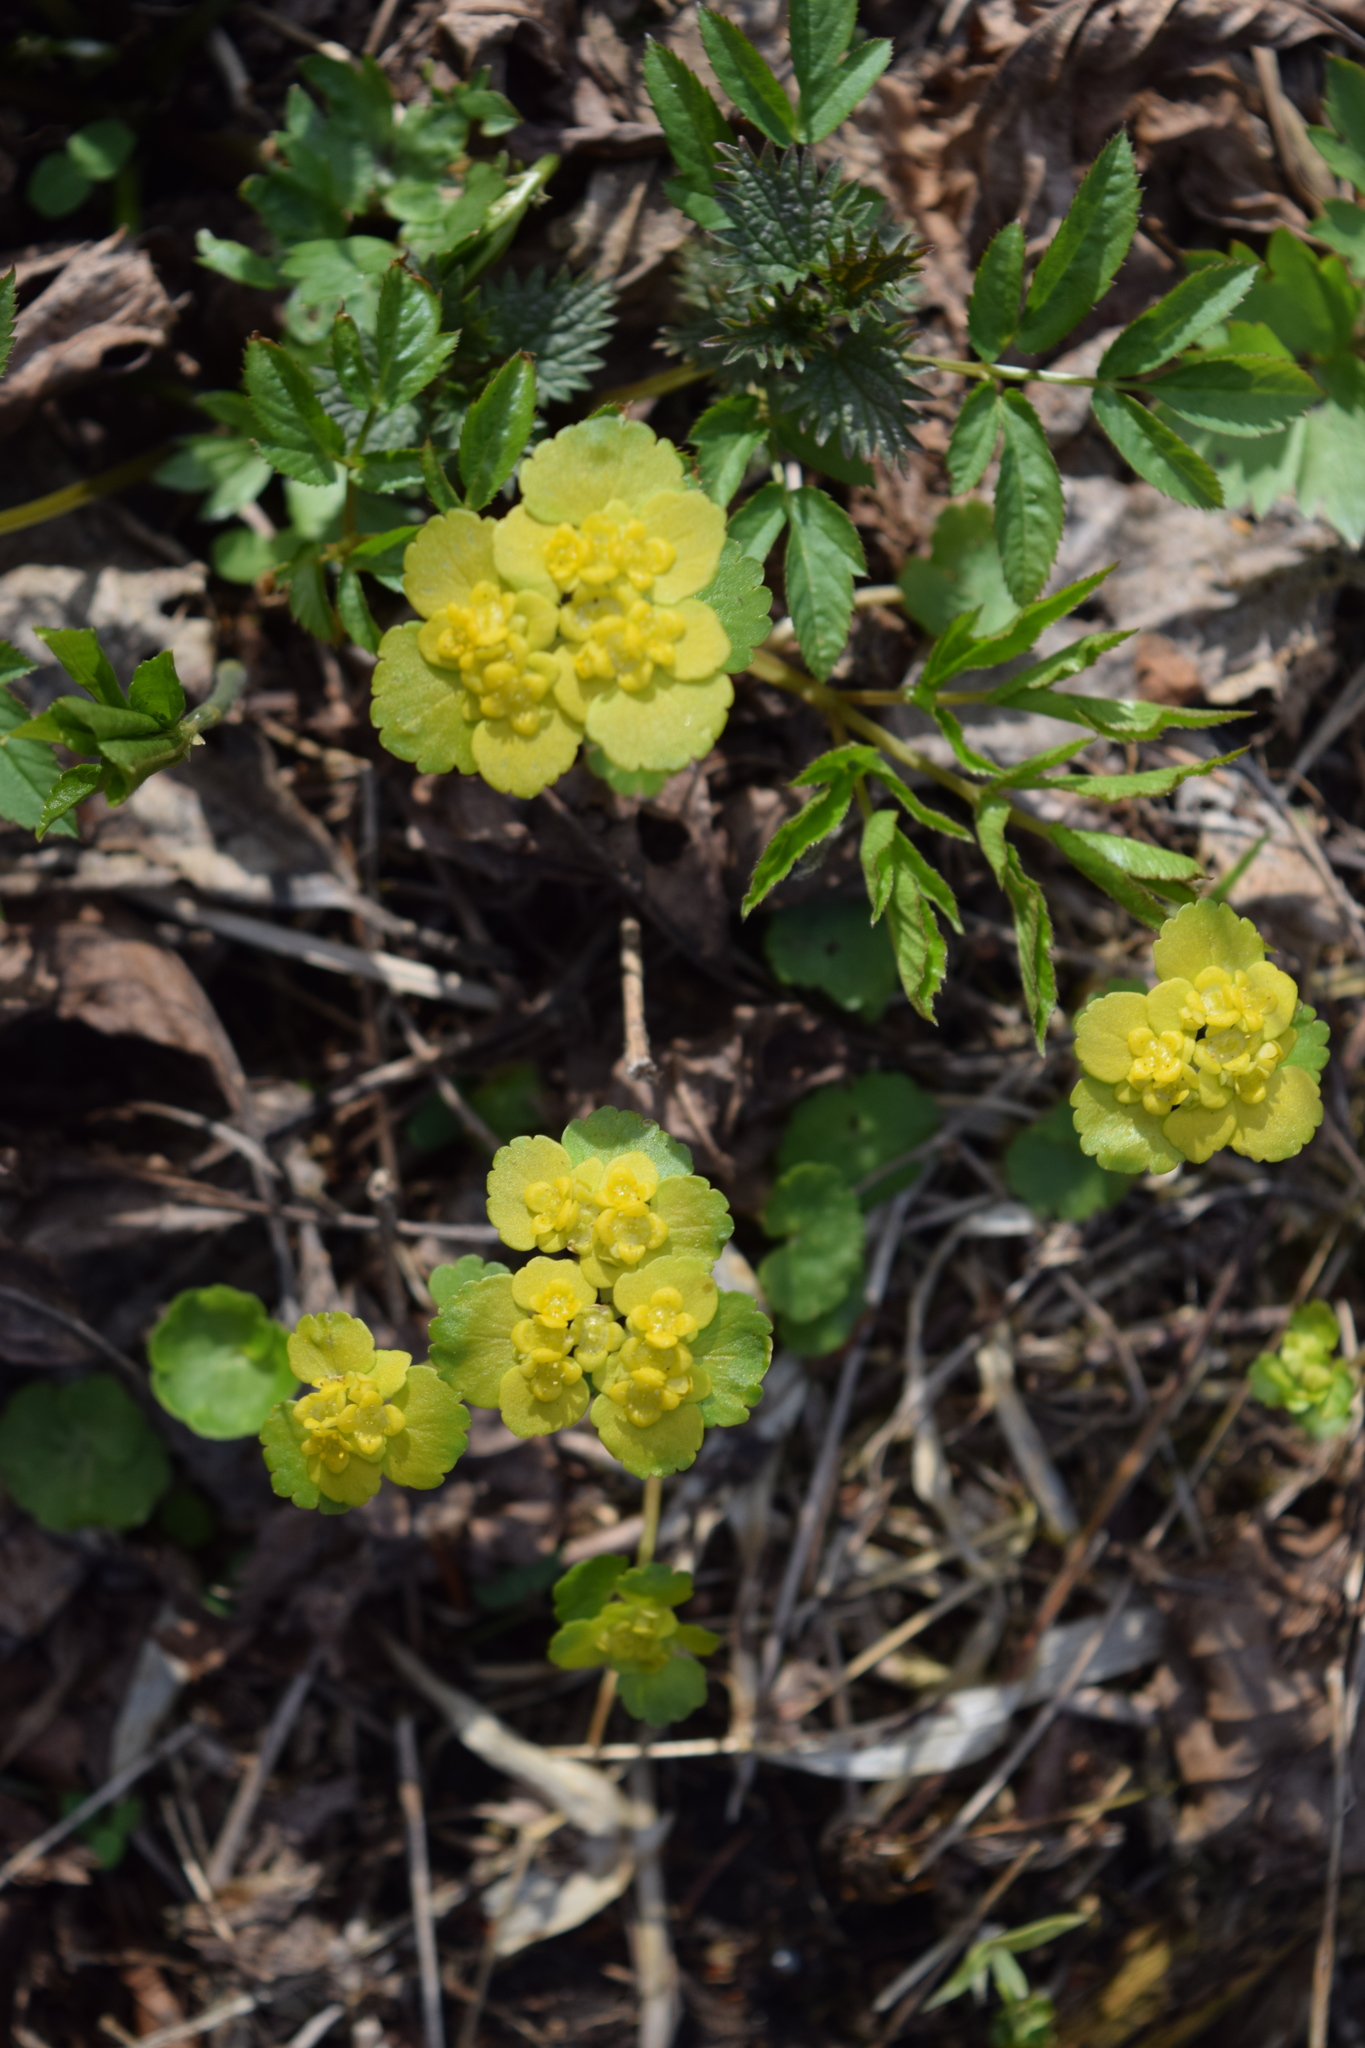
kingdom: Plantae
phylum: Tracheophyta
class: Magnoliopsida
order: Saxifragales
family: Saxifragaceae
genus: Chrysosplenium
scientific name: Chrysosplenium alternifolium
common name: Alternate-leaved golden-saxifrage
